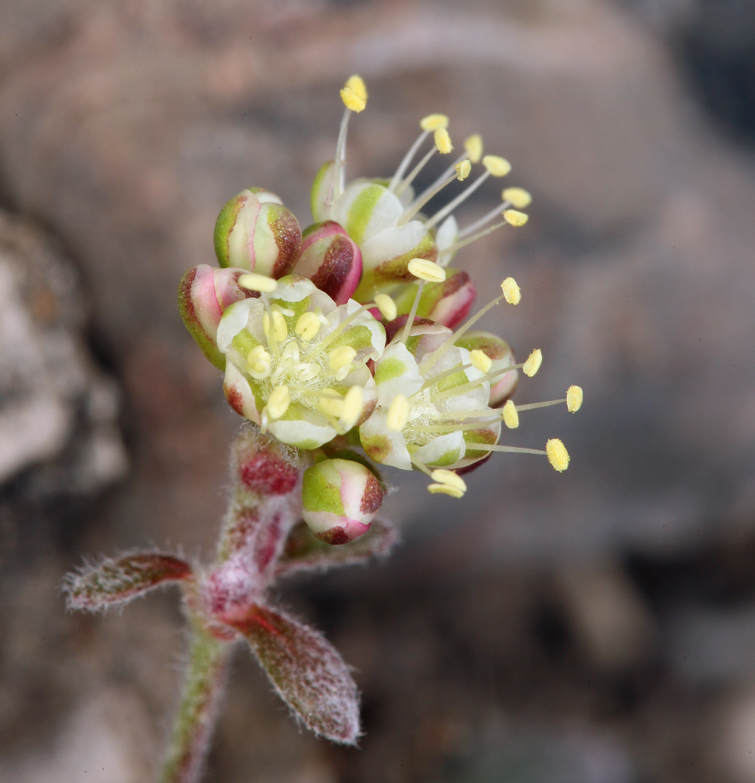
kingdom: Plantae
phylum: Tracheophyta
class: Magnoliopsida
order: Caryophyllales
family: Polygonaceae
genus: Eriogonum
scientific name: Eriogonum umbellatum
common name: Sulfur-buckwheat
